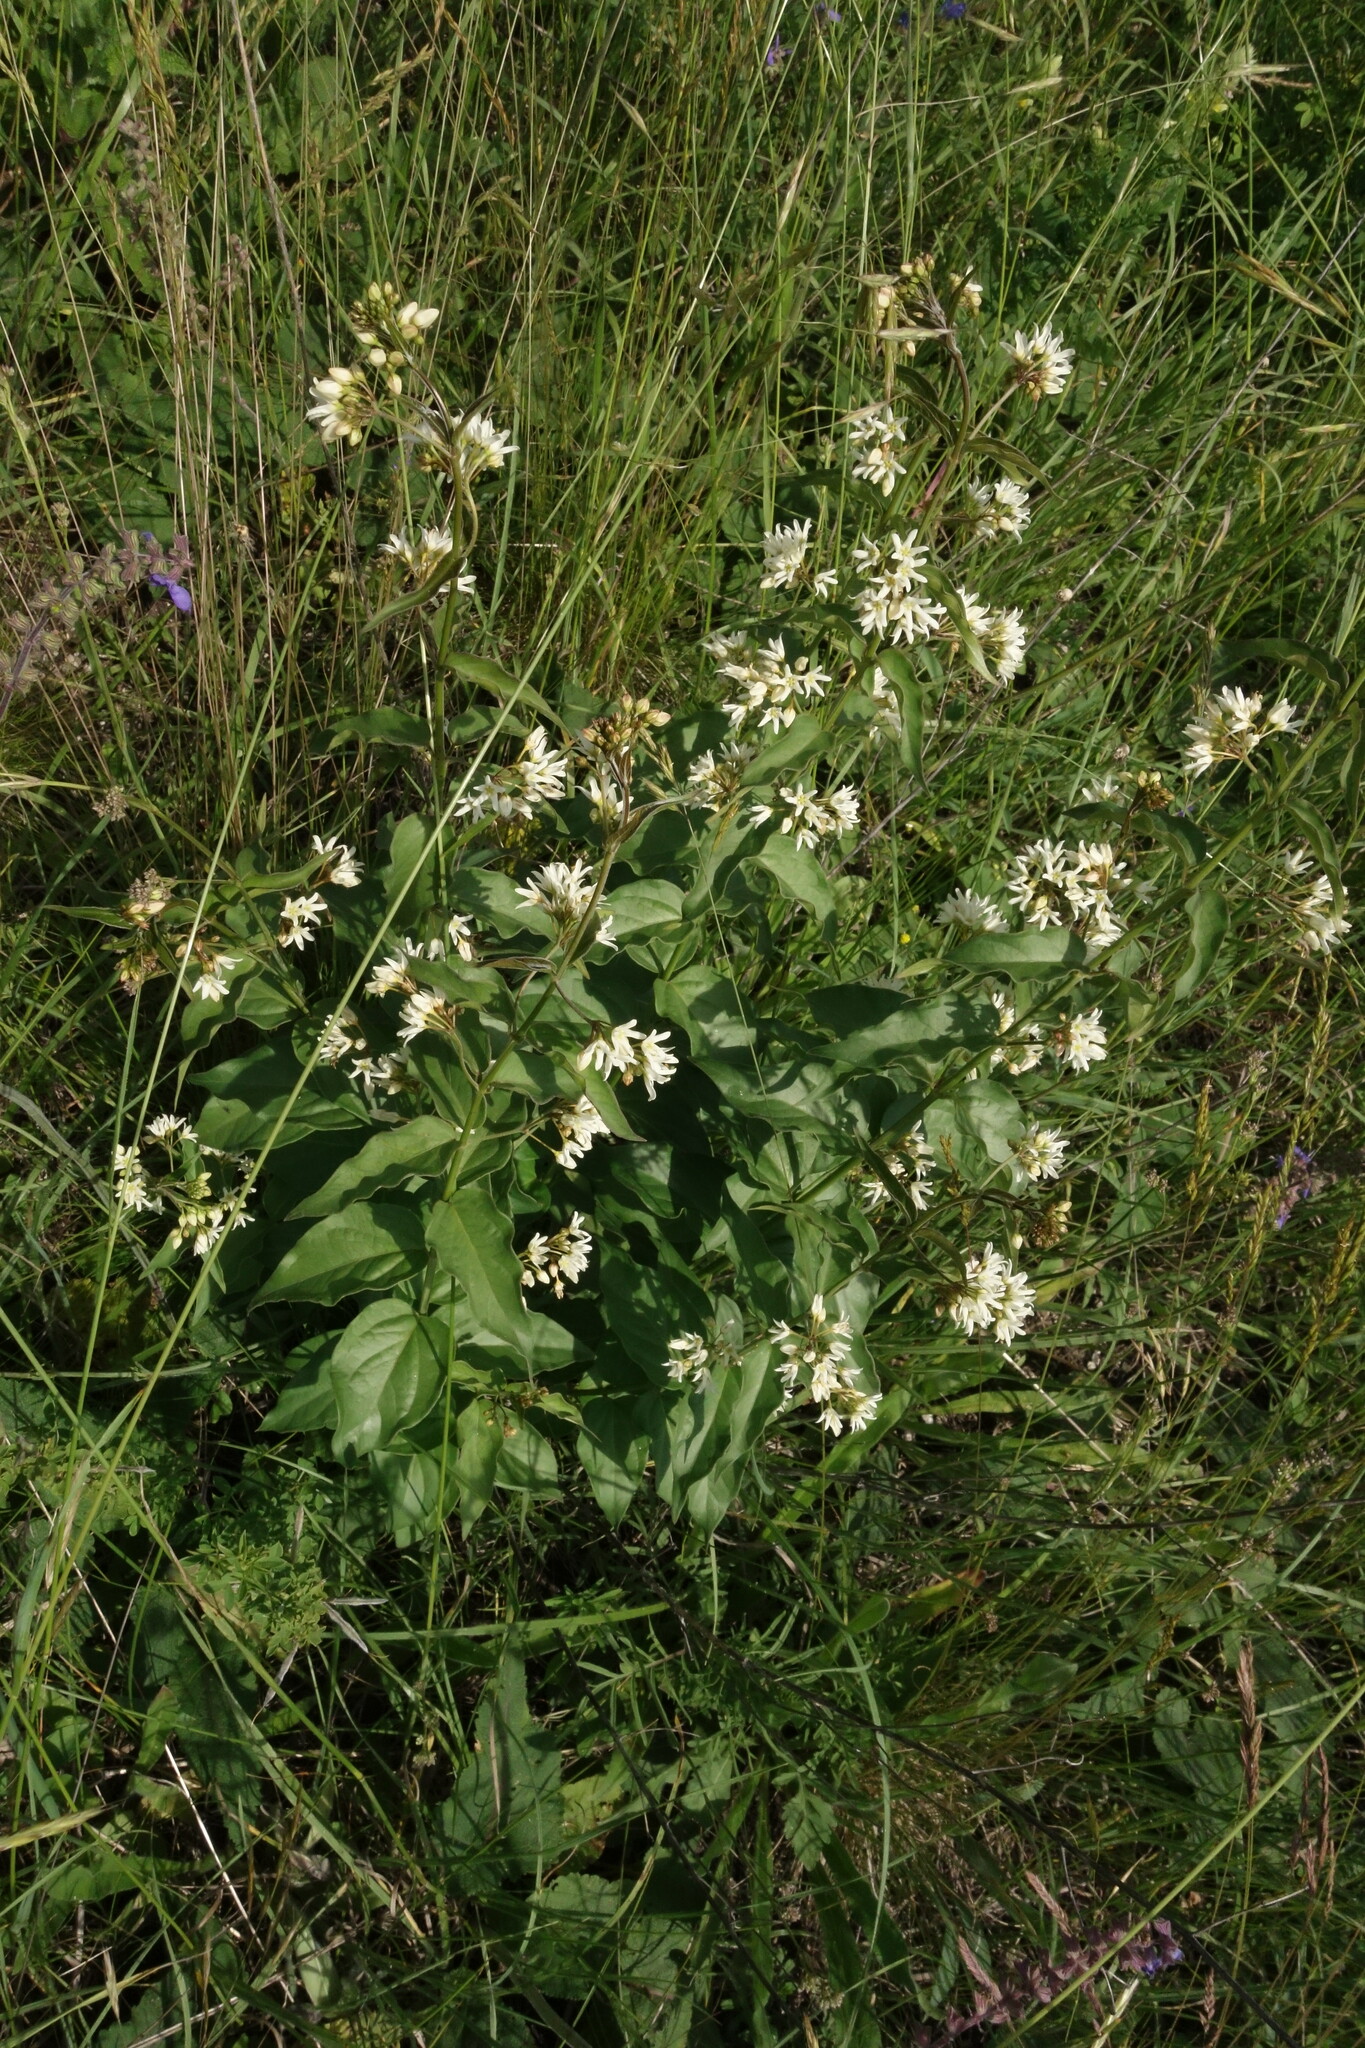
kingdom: Plantae
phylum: Tracheophyta
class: Magnoliopsida
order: Gentianales
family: Apocynaceae
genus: Vincetoxicum
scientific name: Vincetoxicum hirundinaria
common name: White swallowwort
